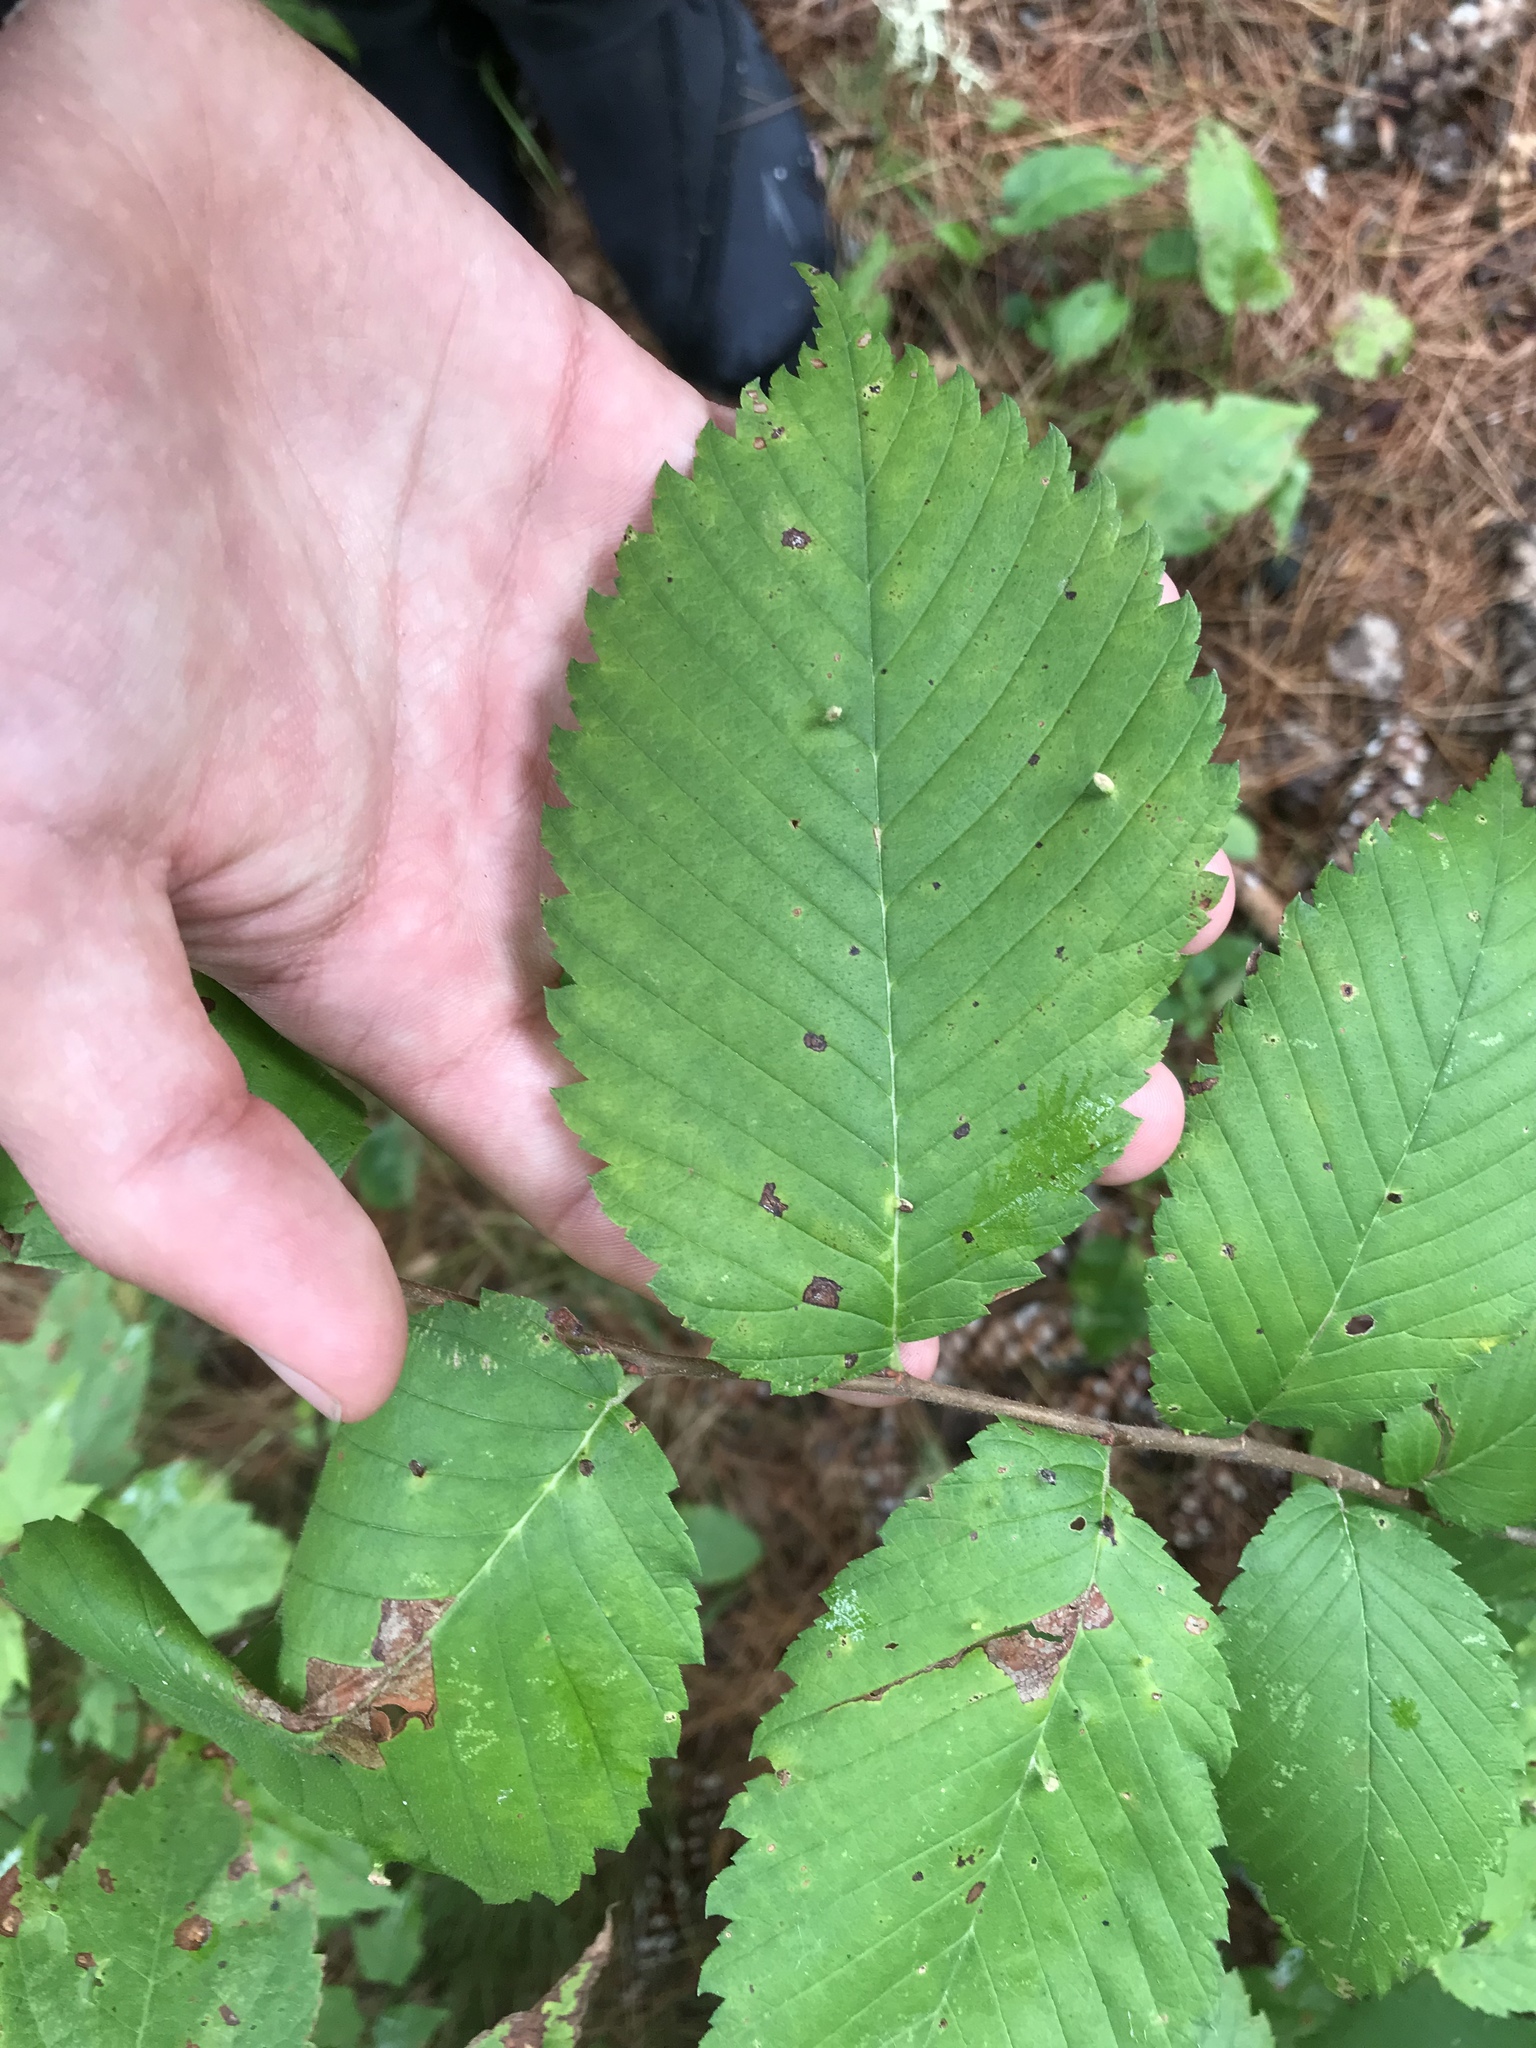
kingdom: Plantae
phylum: Tracheophyta
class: Magnoliopsida
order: Rosales
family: Ulmaceae
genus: Ulmus
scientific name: Ulmus americana
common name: American elm
